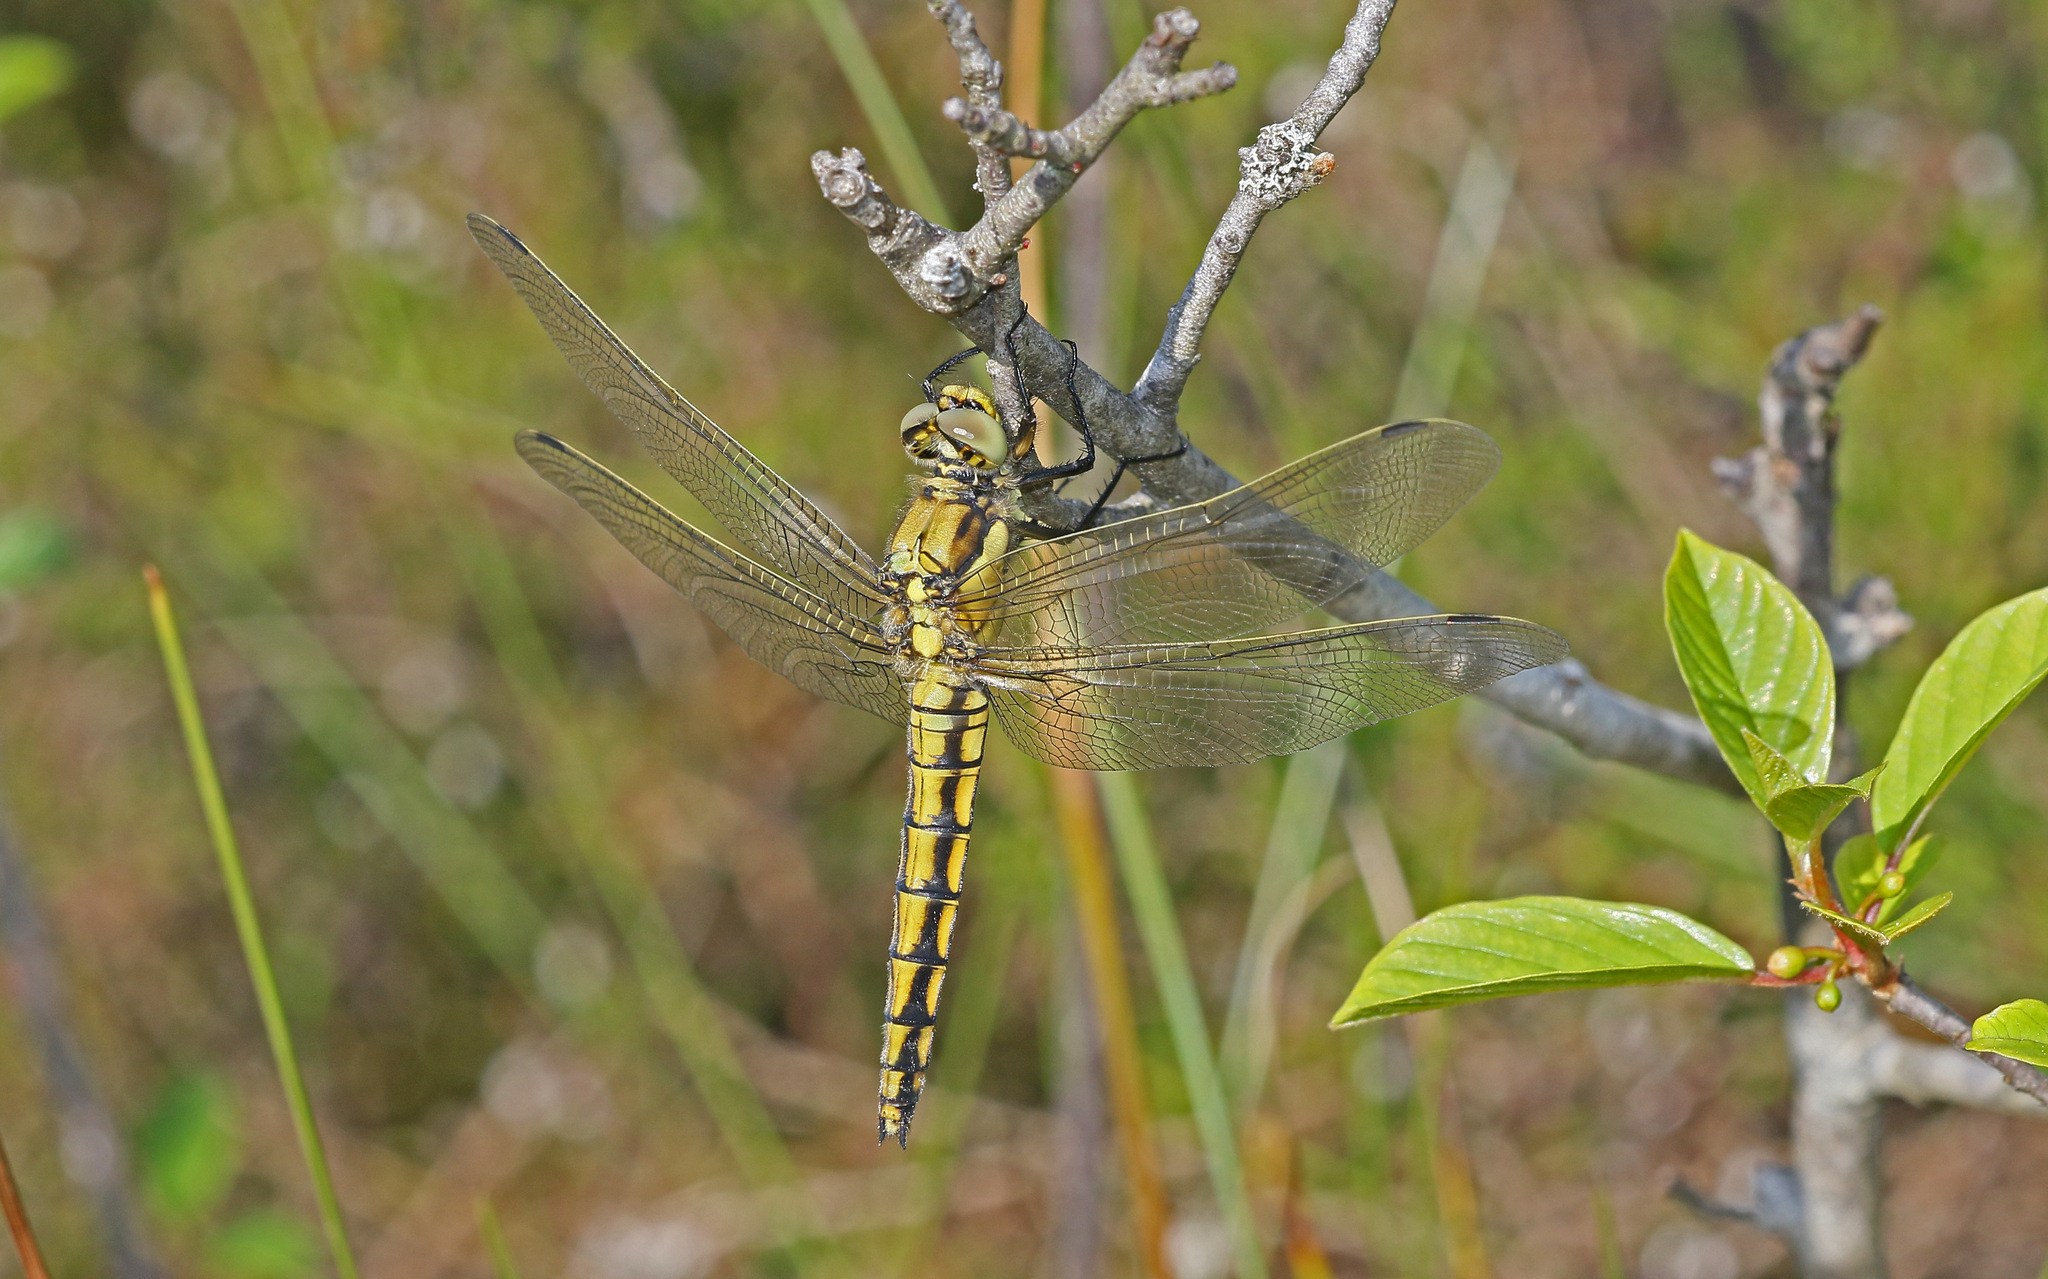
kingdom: Animalia
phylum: Arthropoda
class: Insecta
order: Odonata
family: Libellulidae
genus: Orthetrum
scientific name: Orthetrum cancellatum
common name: Black-tailed skimmer
